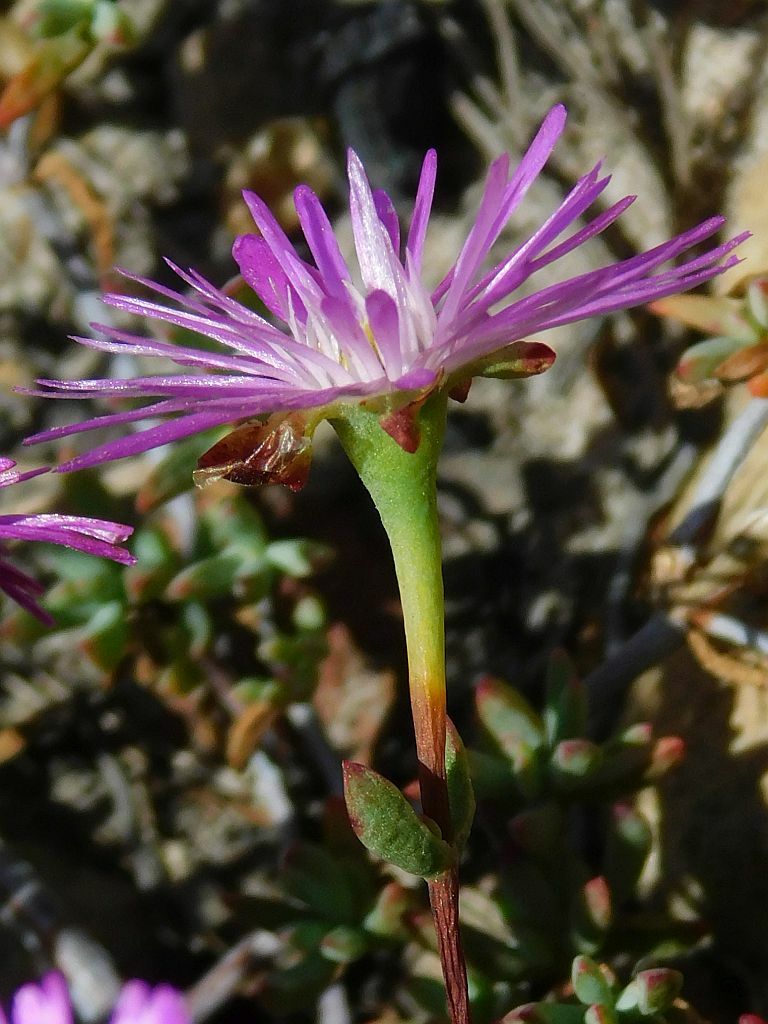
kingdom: Plantae
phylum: Tracheophyta
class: Magnoliopsida
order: Caryophyllales
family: Aizoaceae
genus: Lampranthus
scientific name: Lampranthus falcatus
